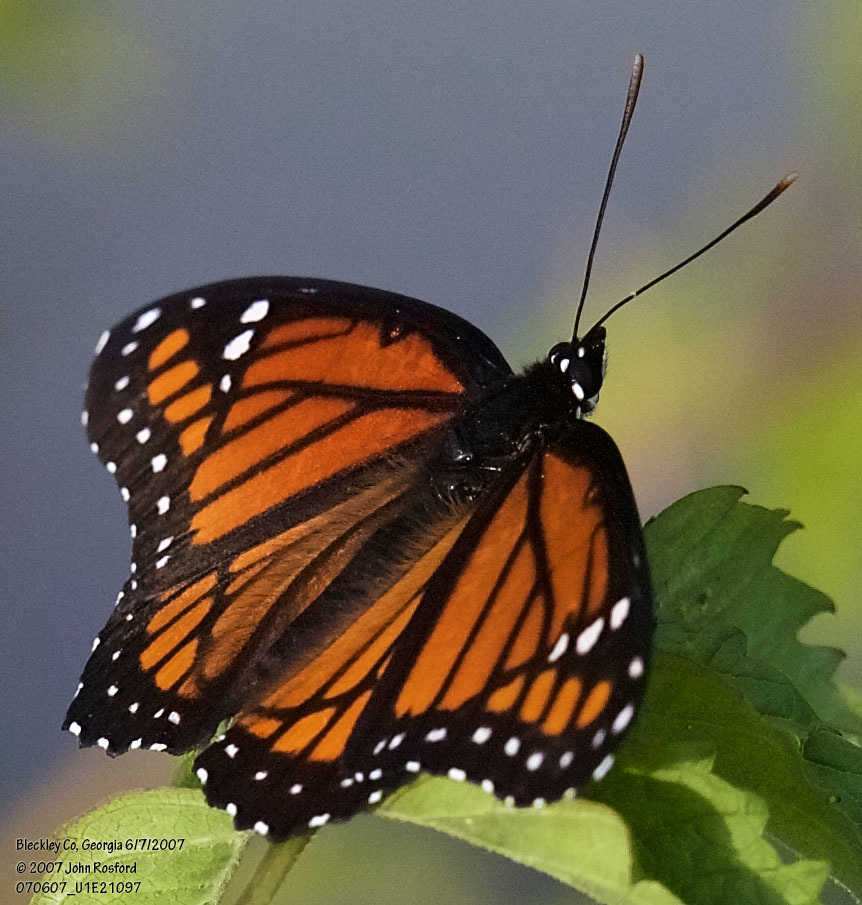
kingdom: Animalia
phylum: Arthropoda
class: Insecta
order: Lepidoptera
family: Nymphalidae
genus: Limenitis
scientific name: Limenitis archippus
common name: Viceroy
